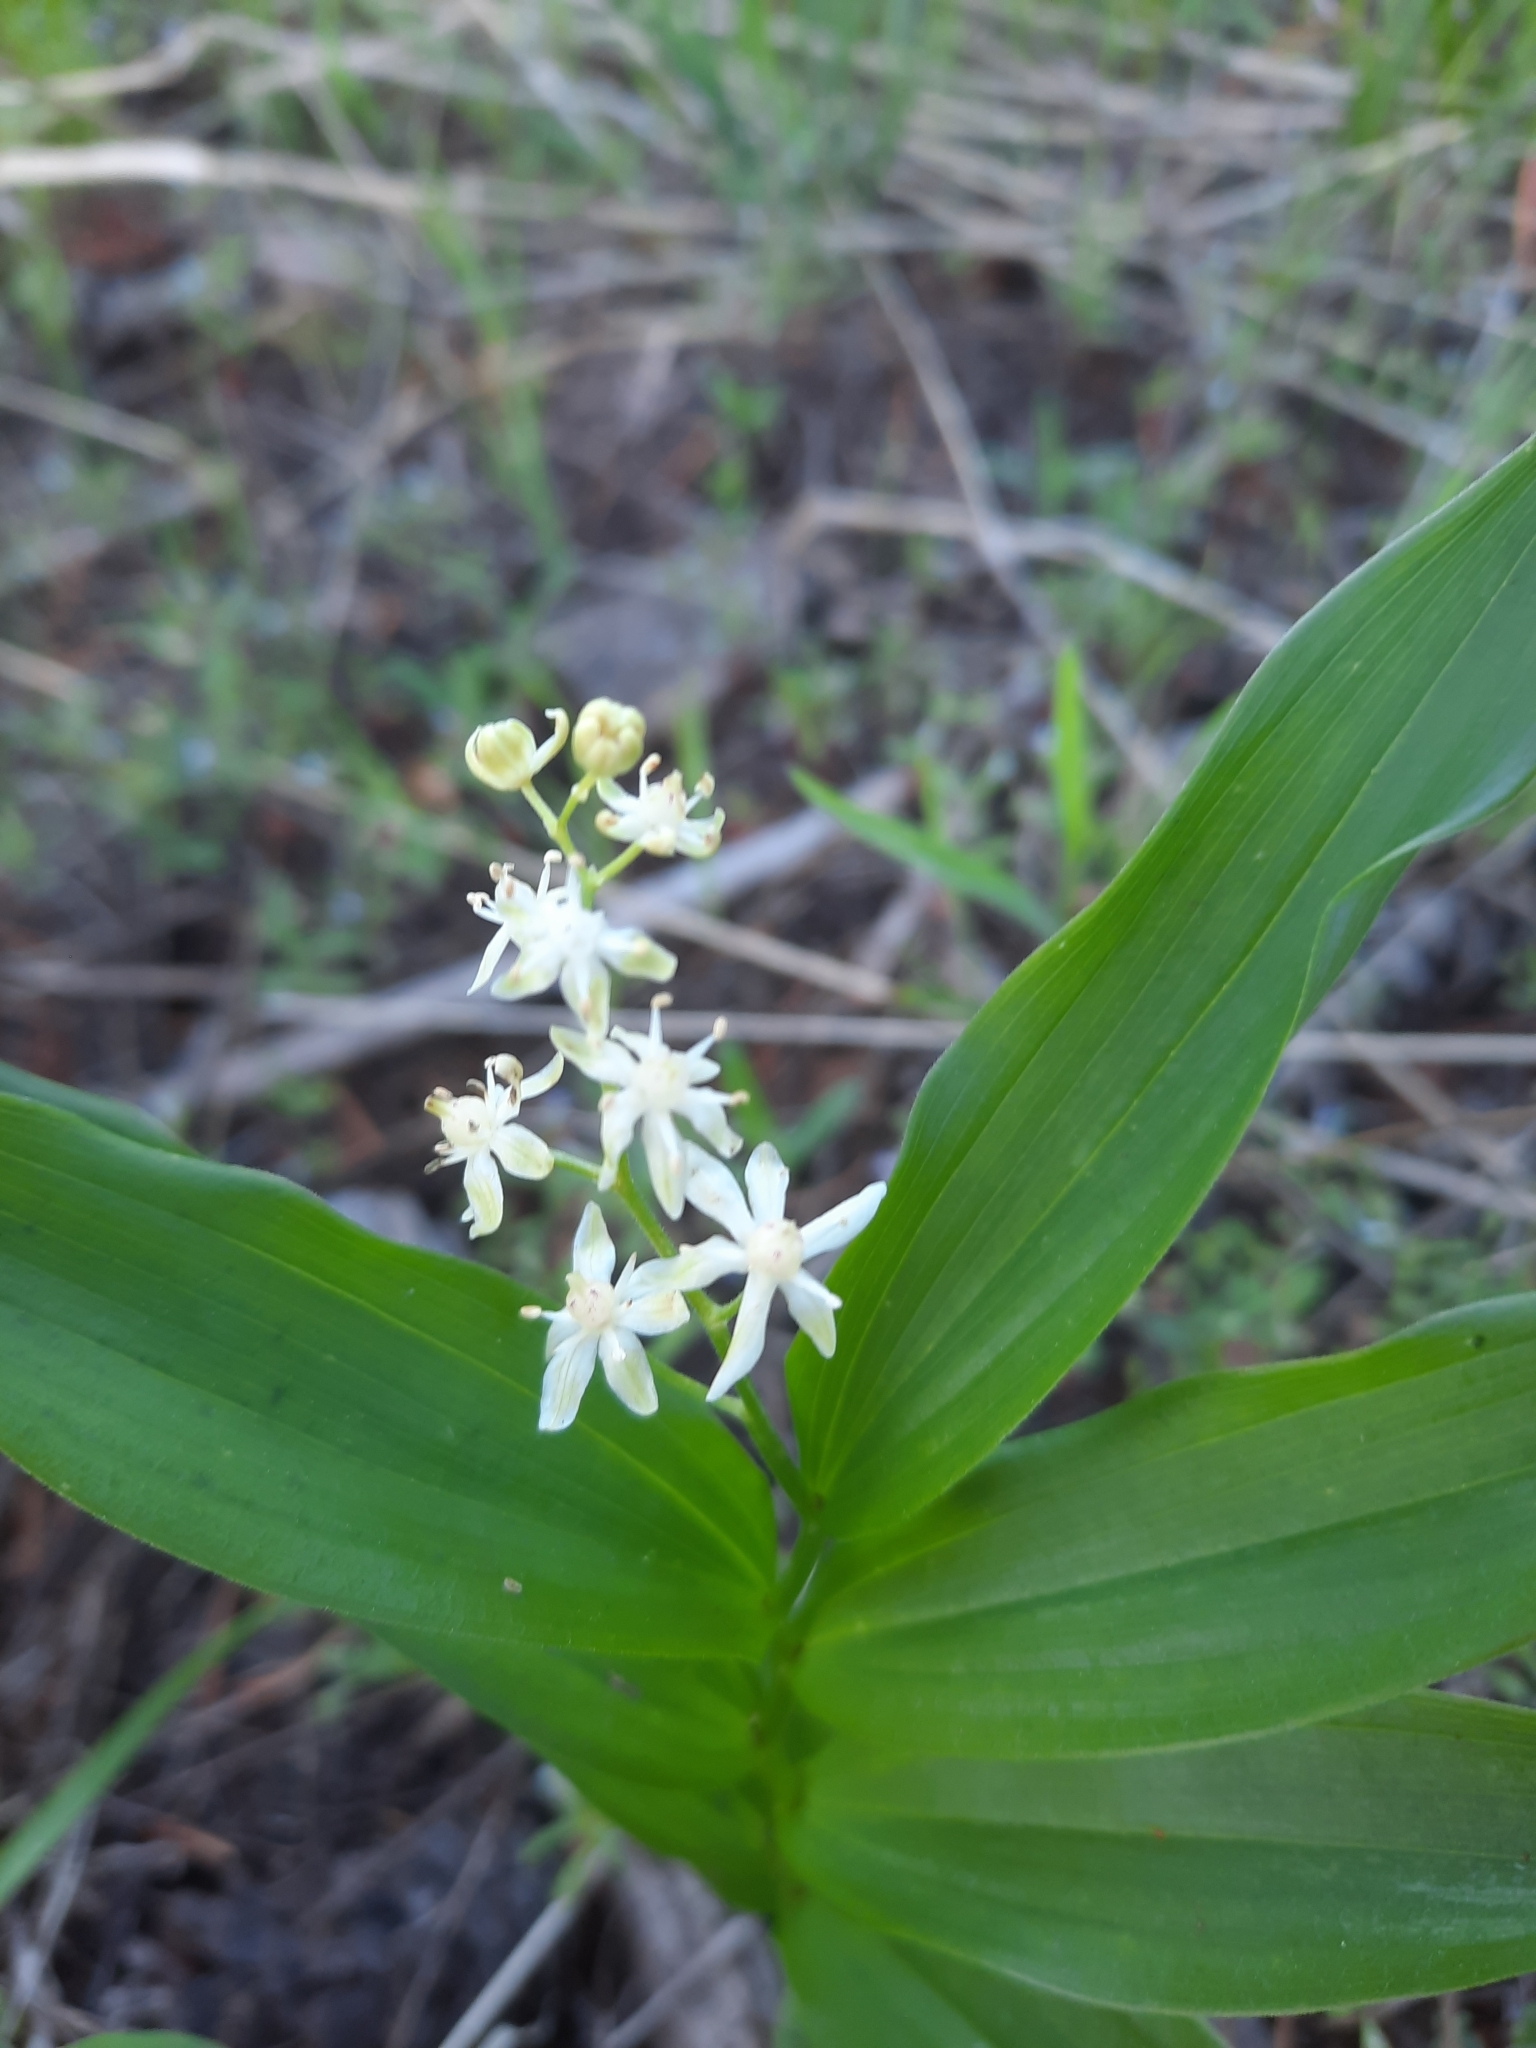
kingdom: Plantae
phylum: Tracheophyta
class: Liliopsida
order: Asparagales
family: Asparagaceae
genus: Maianthemum
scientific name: Maianthemum stellatum
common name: Little false solomon's seal
